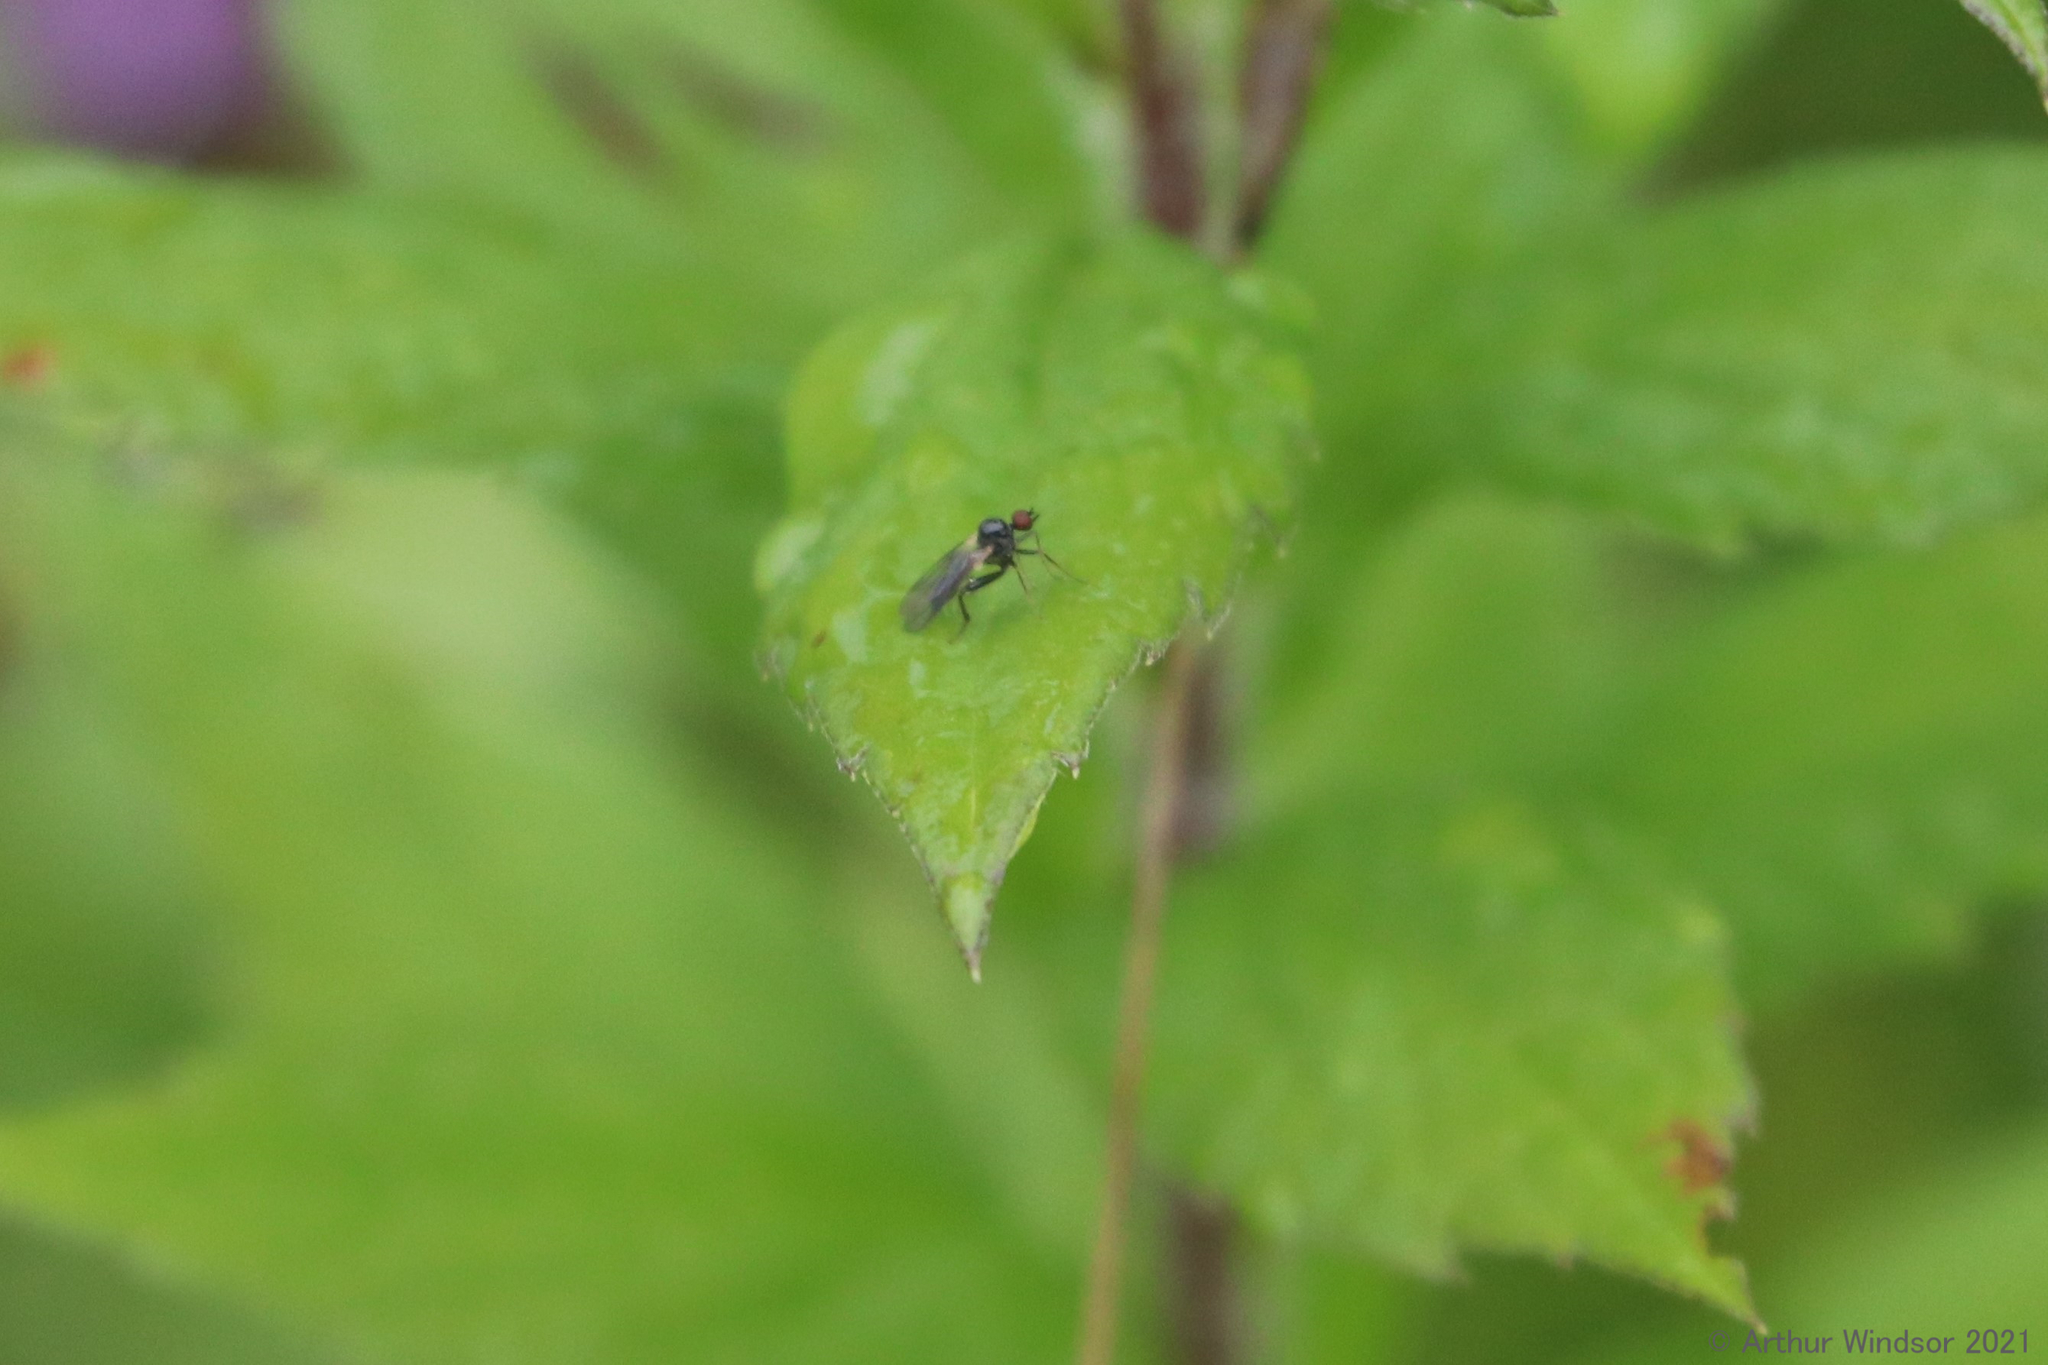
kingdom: Animalia
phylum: Arthropoda
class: Insecta
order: Diptera
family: Hybotidae
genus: Hybos
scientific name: Hybos reversus
